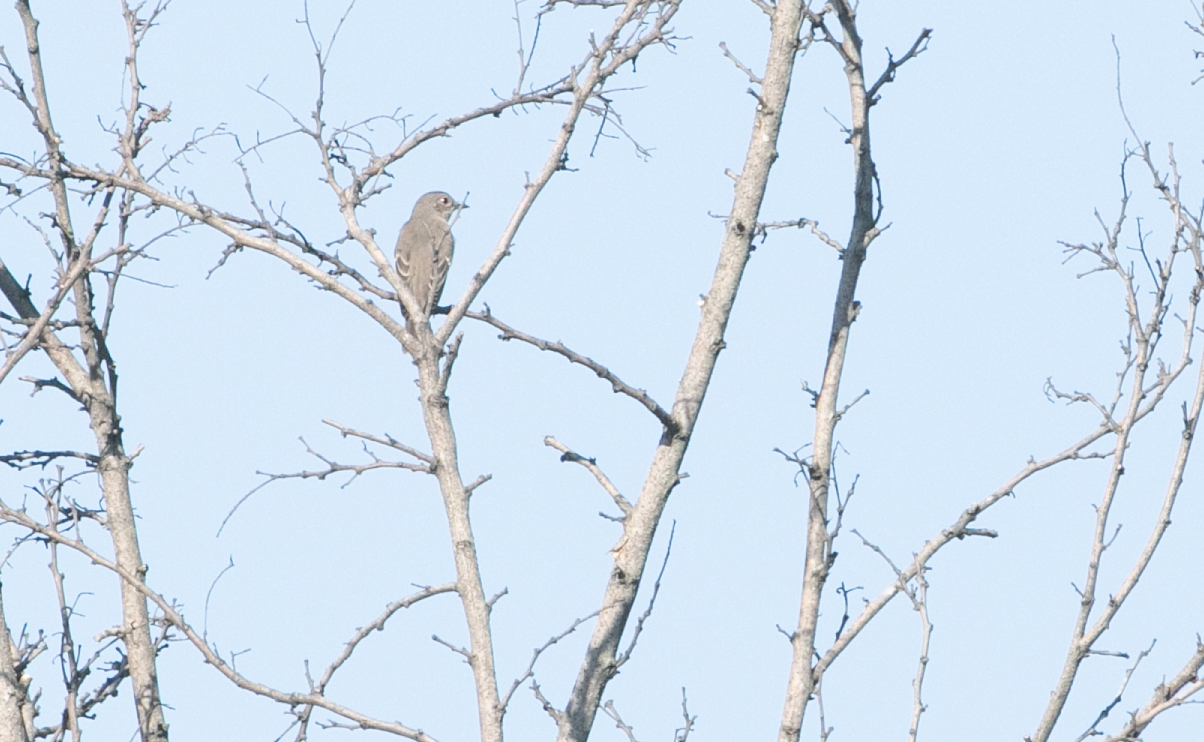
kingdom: Animalia
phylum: Chordata
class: Aves
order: Passeriformes
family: Muscicapidae
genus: Muscicapa
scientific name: Muscicapa striata
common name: Spotted flycatcher
